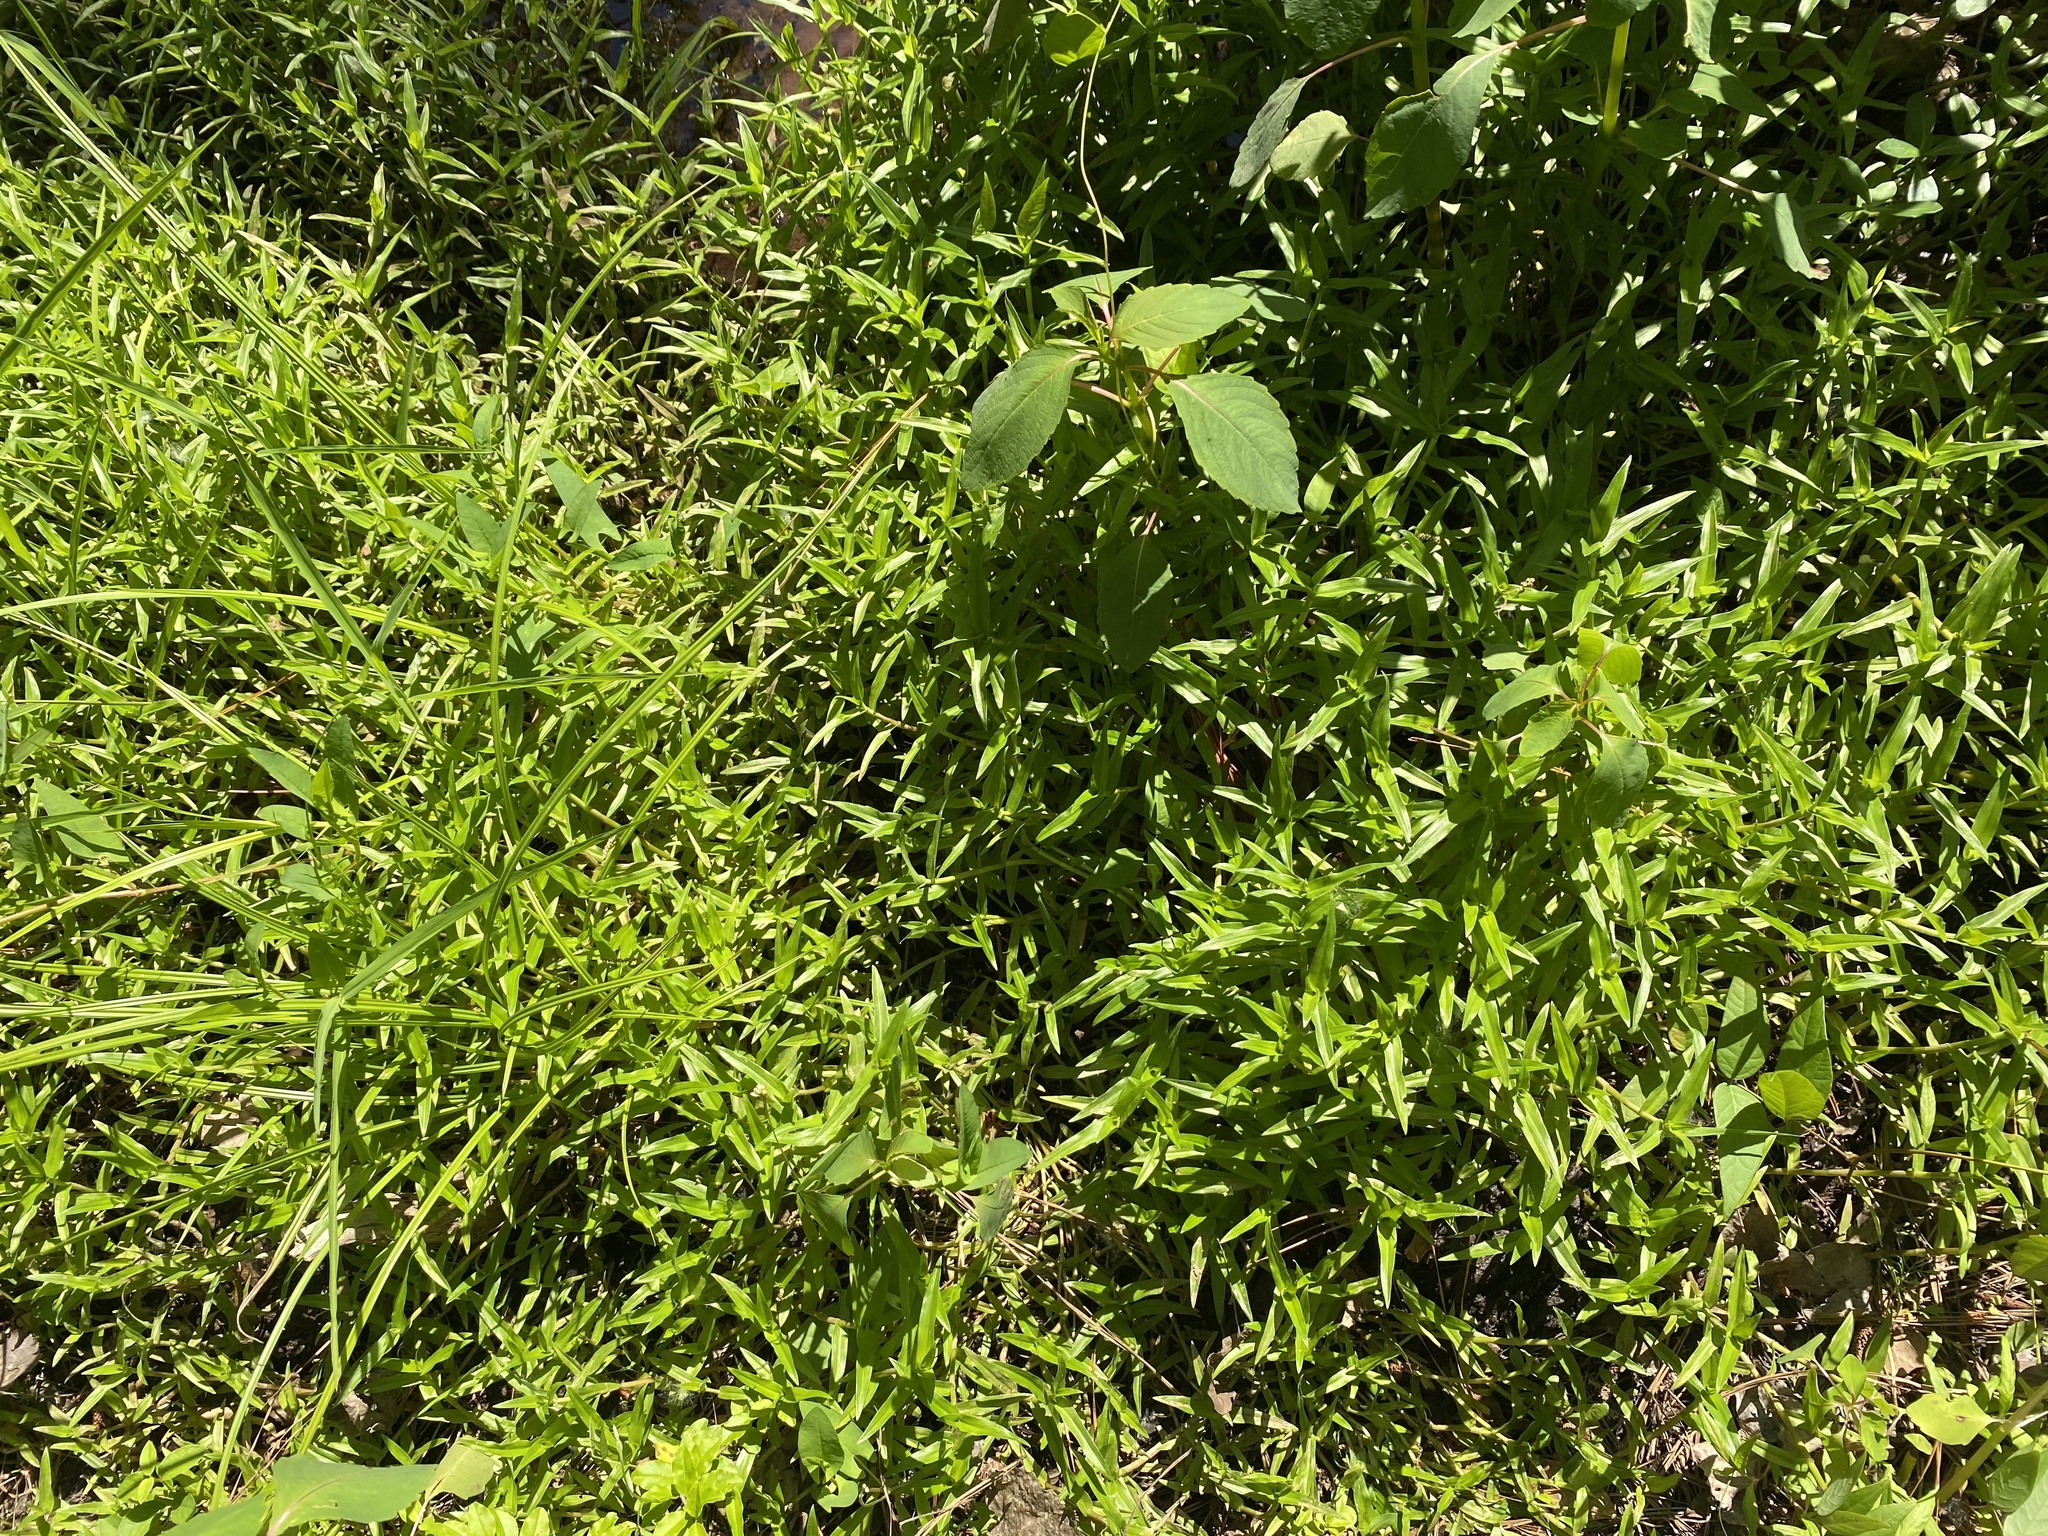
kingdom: Plantae
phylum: Tracheophyta
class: Liliopsida
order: Commelinales
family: Commelinaceae
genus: Murdannia
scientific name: Murdannia keisak
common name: Wartremoving herb
